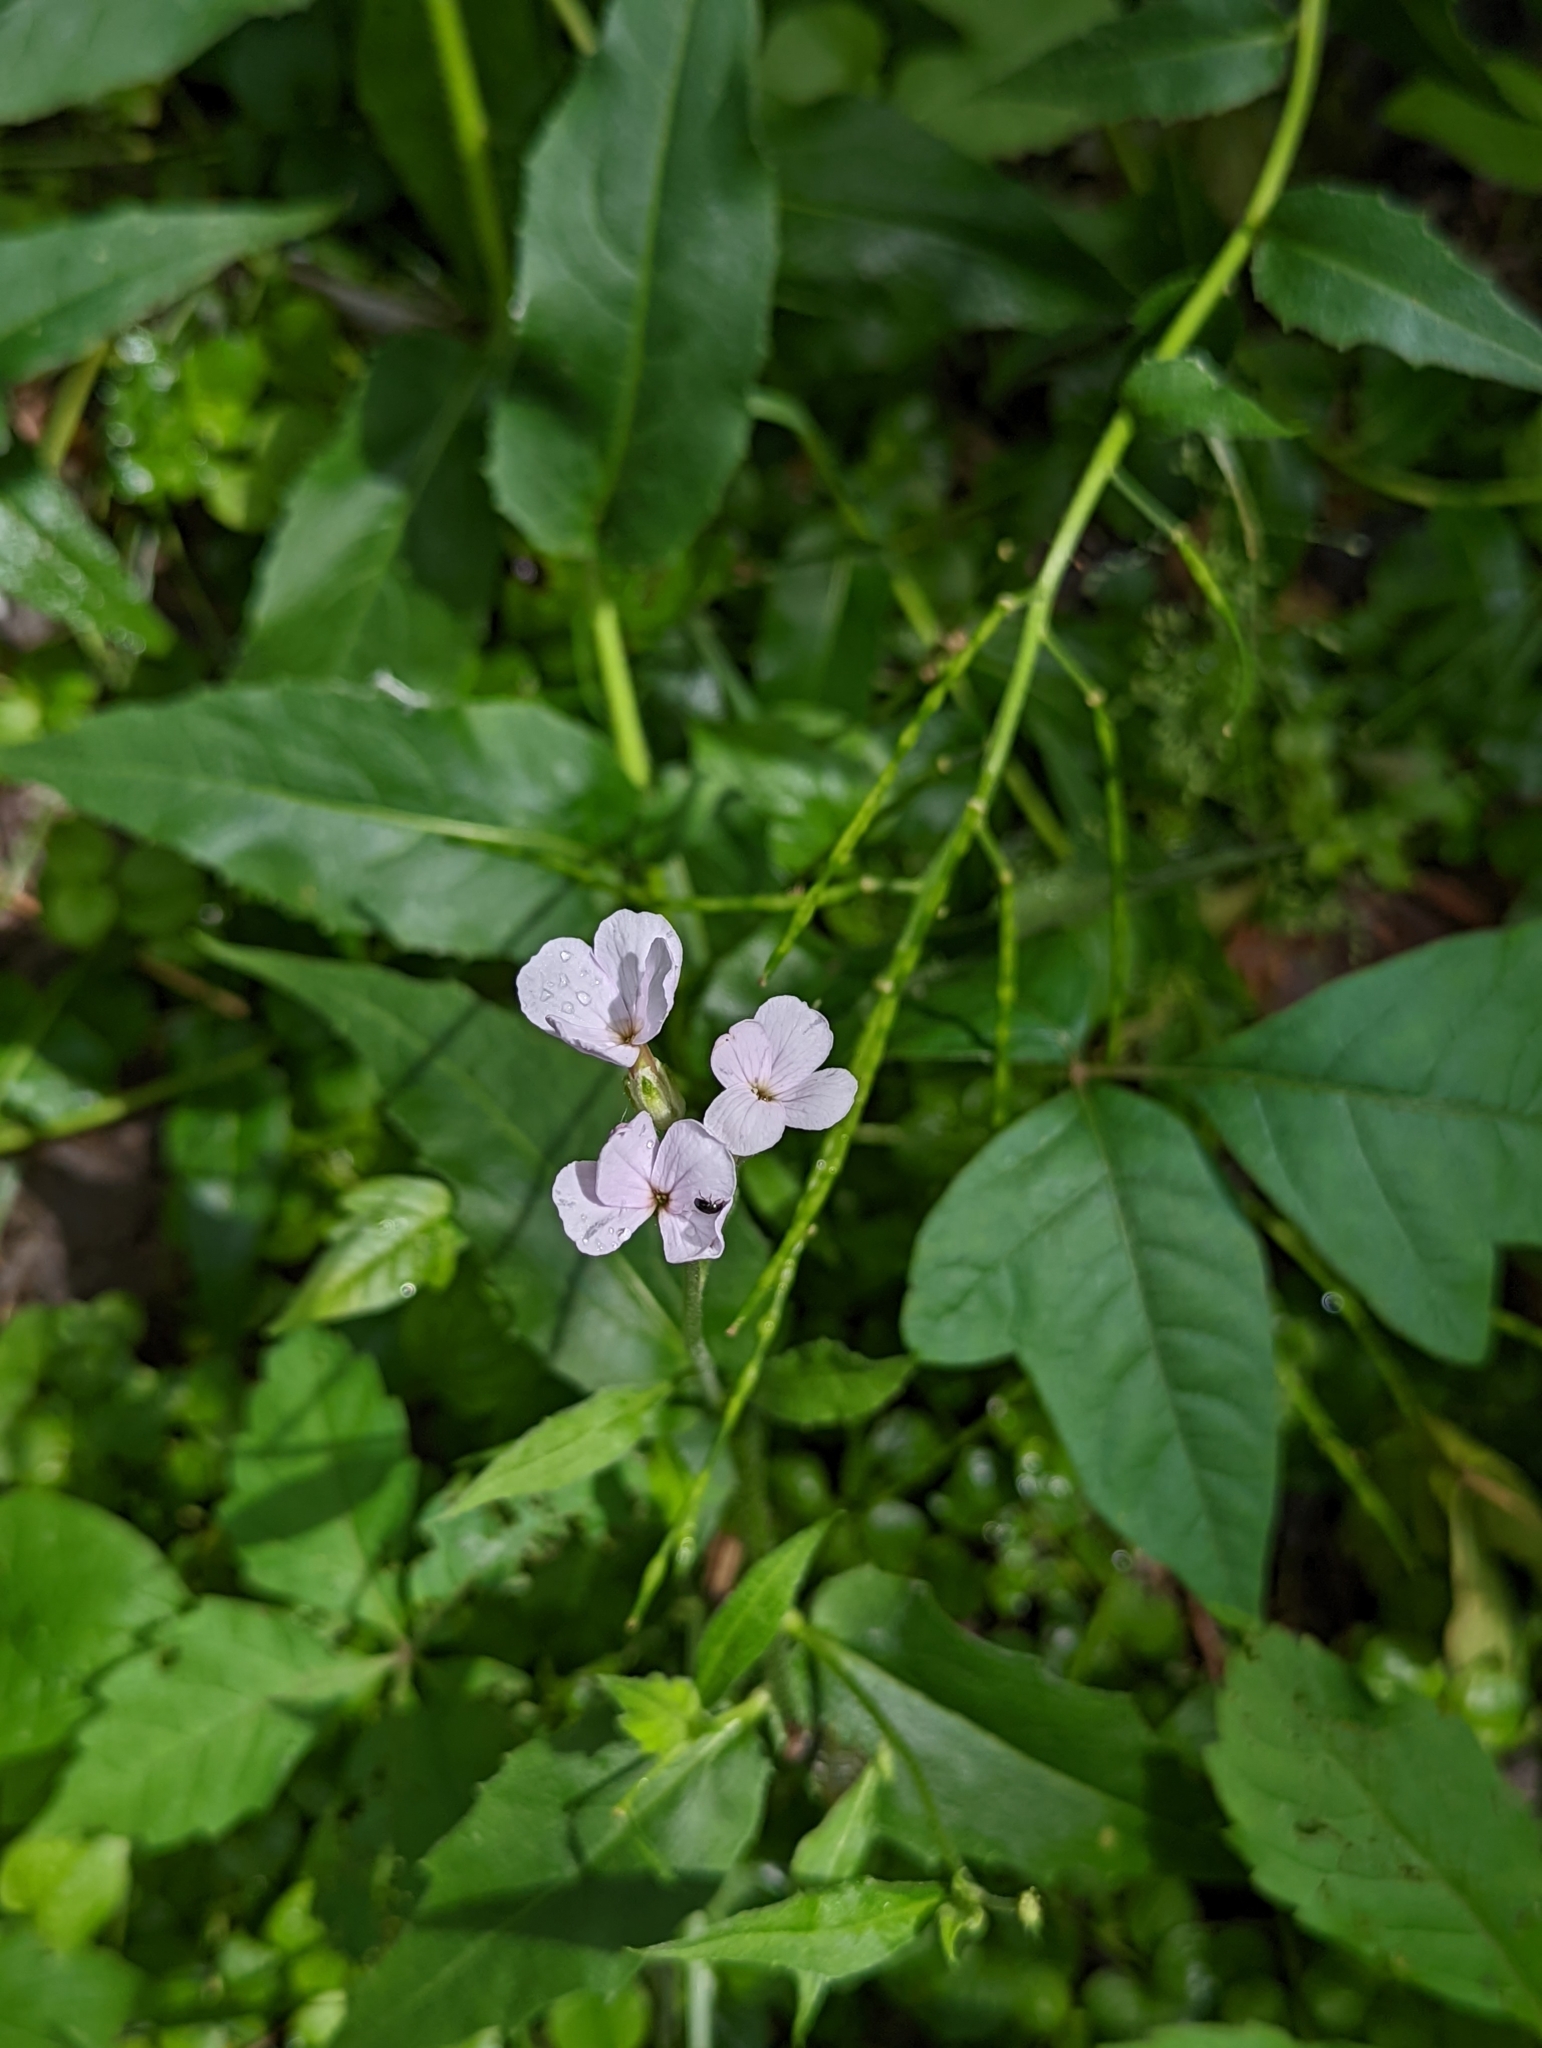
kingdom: Plantae
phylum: Tracheophyta
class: Magnoliopsida
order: Brassicales
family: Brassicaceae
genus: Hesperis
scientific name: Hesperis matronalis
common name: Dame's-violet
